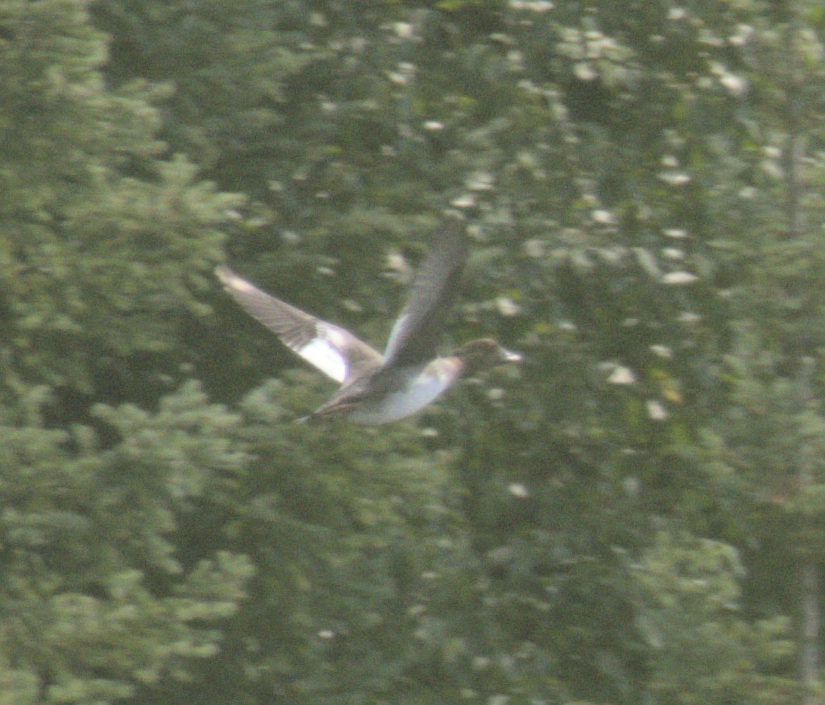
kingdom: Animalia
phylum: Chordata
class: Aves
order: Anseriformes
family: Anatidae
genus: Bucephala
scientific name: Bucephala clangula
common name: Common goldeneye
